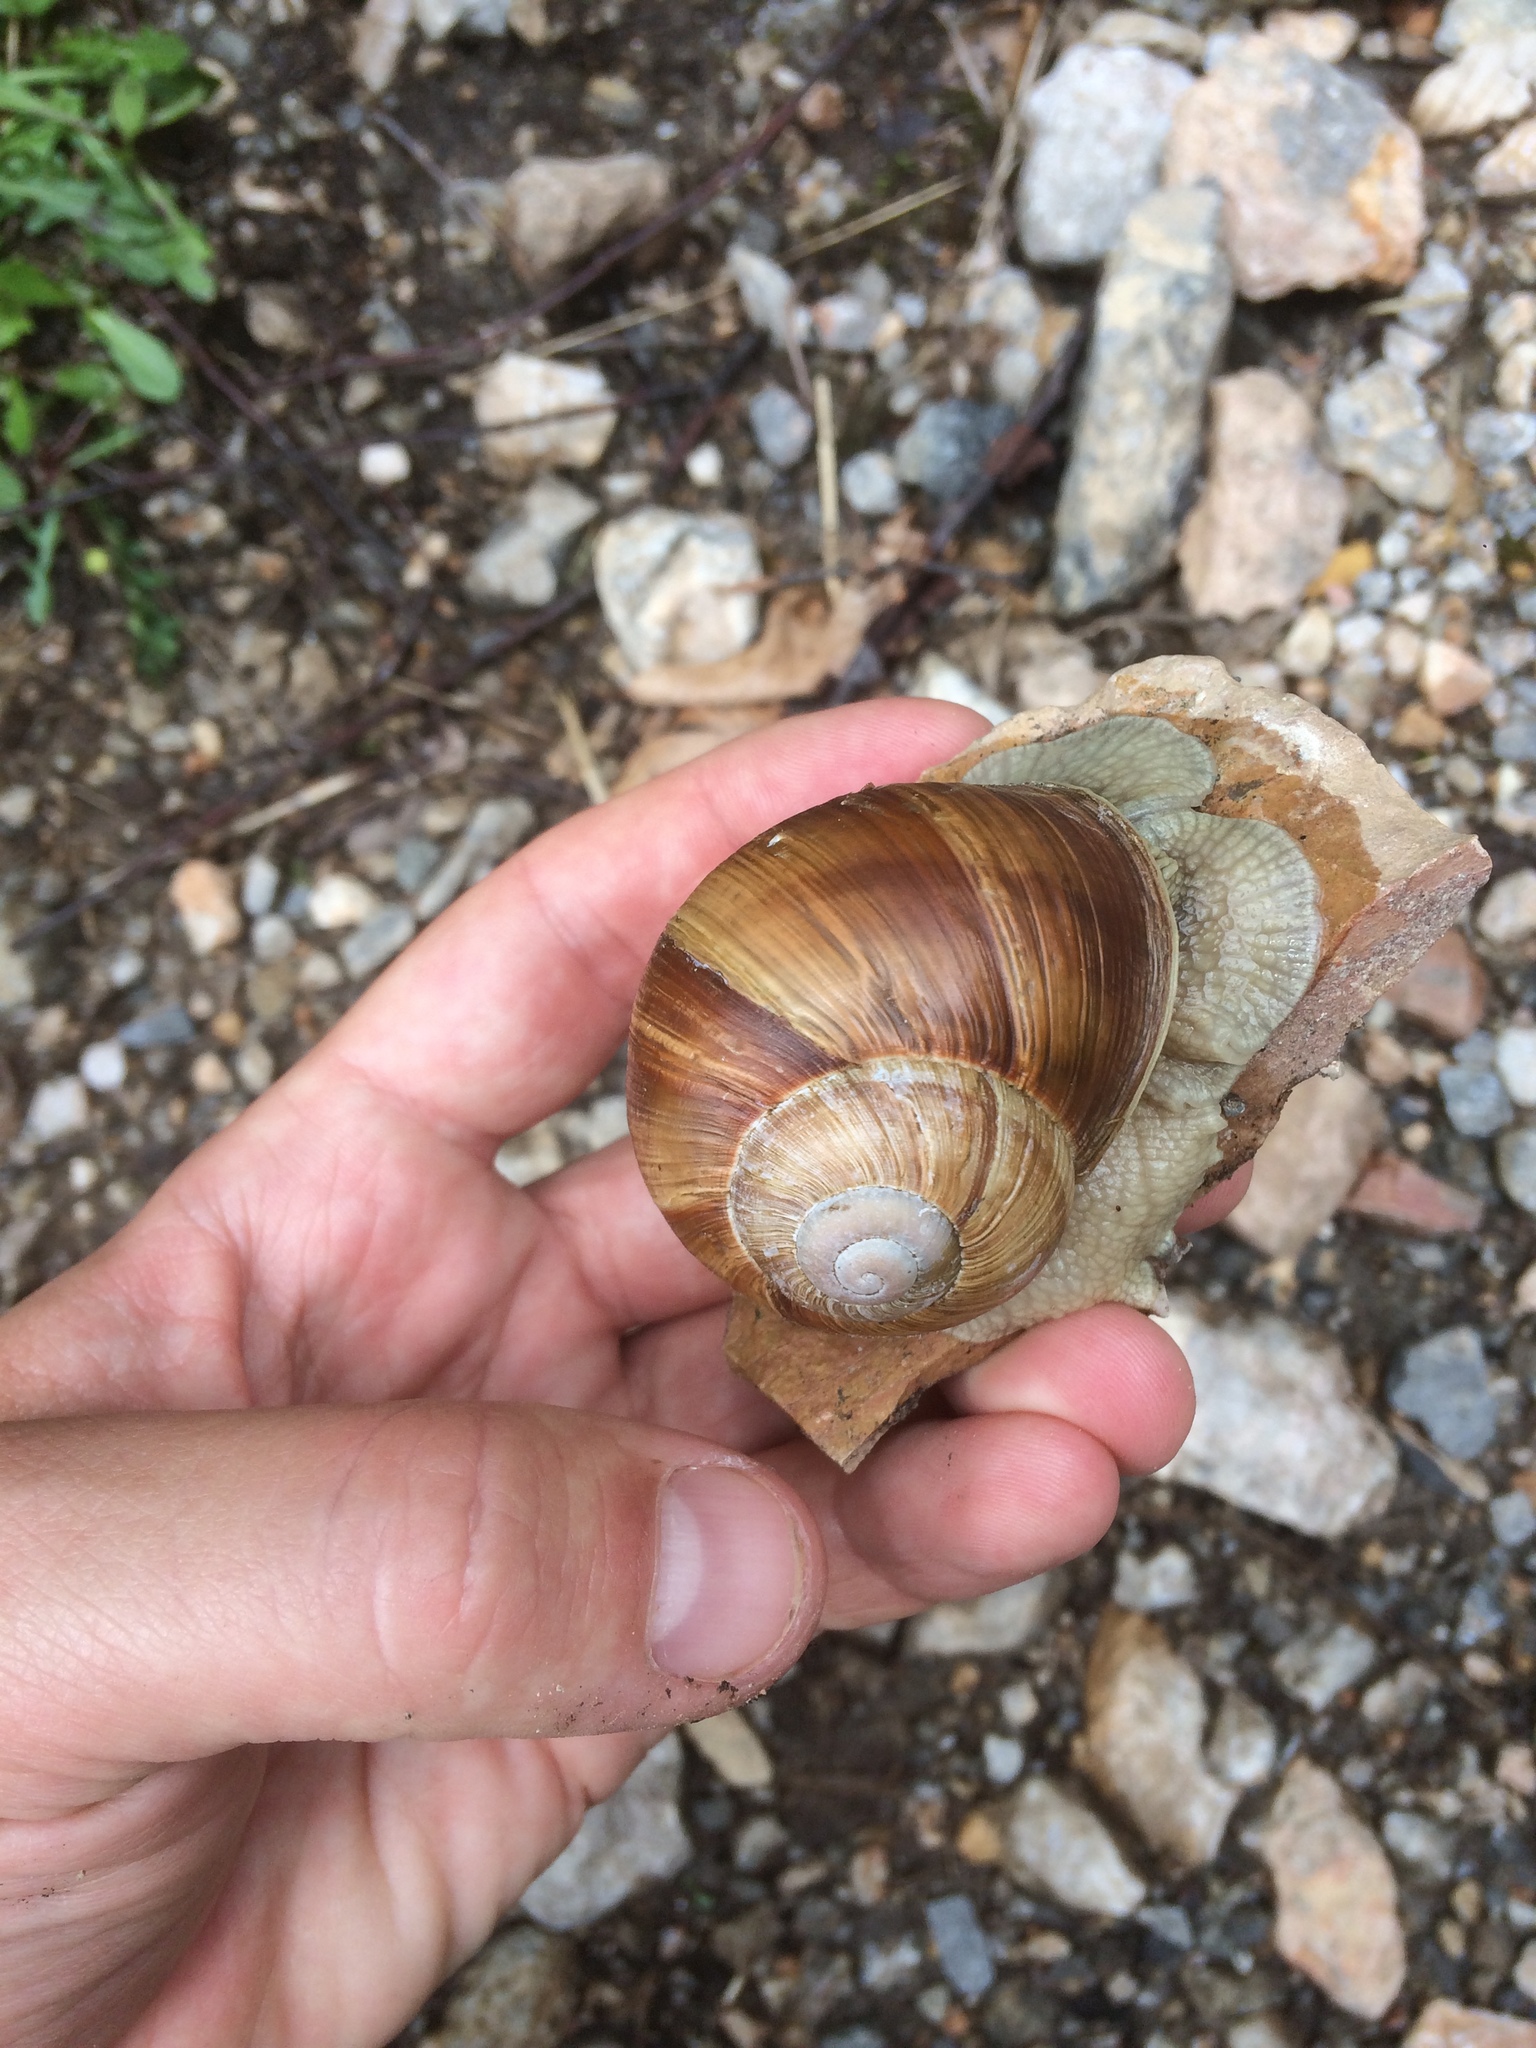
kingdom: Animalia
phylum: Mollusca
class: Gastropoda
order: Stylommatophora
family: Helicidae
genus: Helix
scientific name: Helix pomatia
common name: Roman snail
